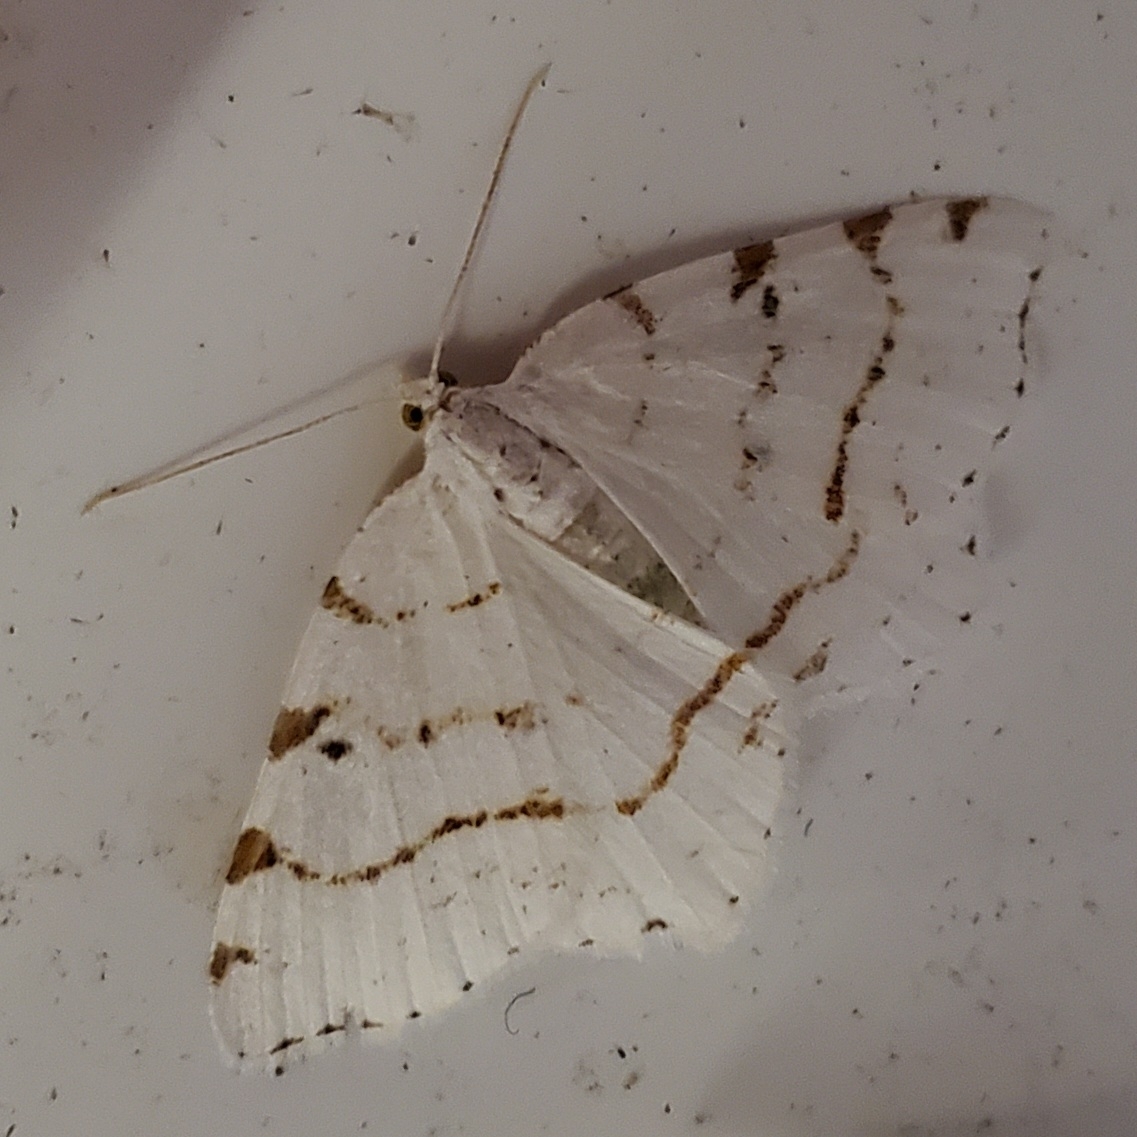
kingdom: Animalia
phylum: Arthropoda
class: Insecta
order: Lepidoptera
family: Geometridae
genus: Macaria
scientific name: Macaria pustularia
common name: Lesser maple spanworm moth
